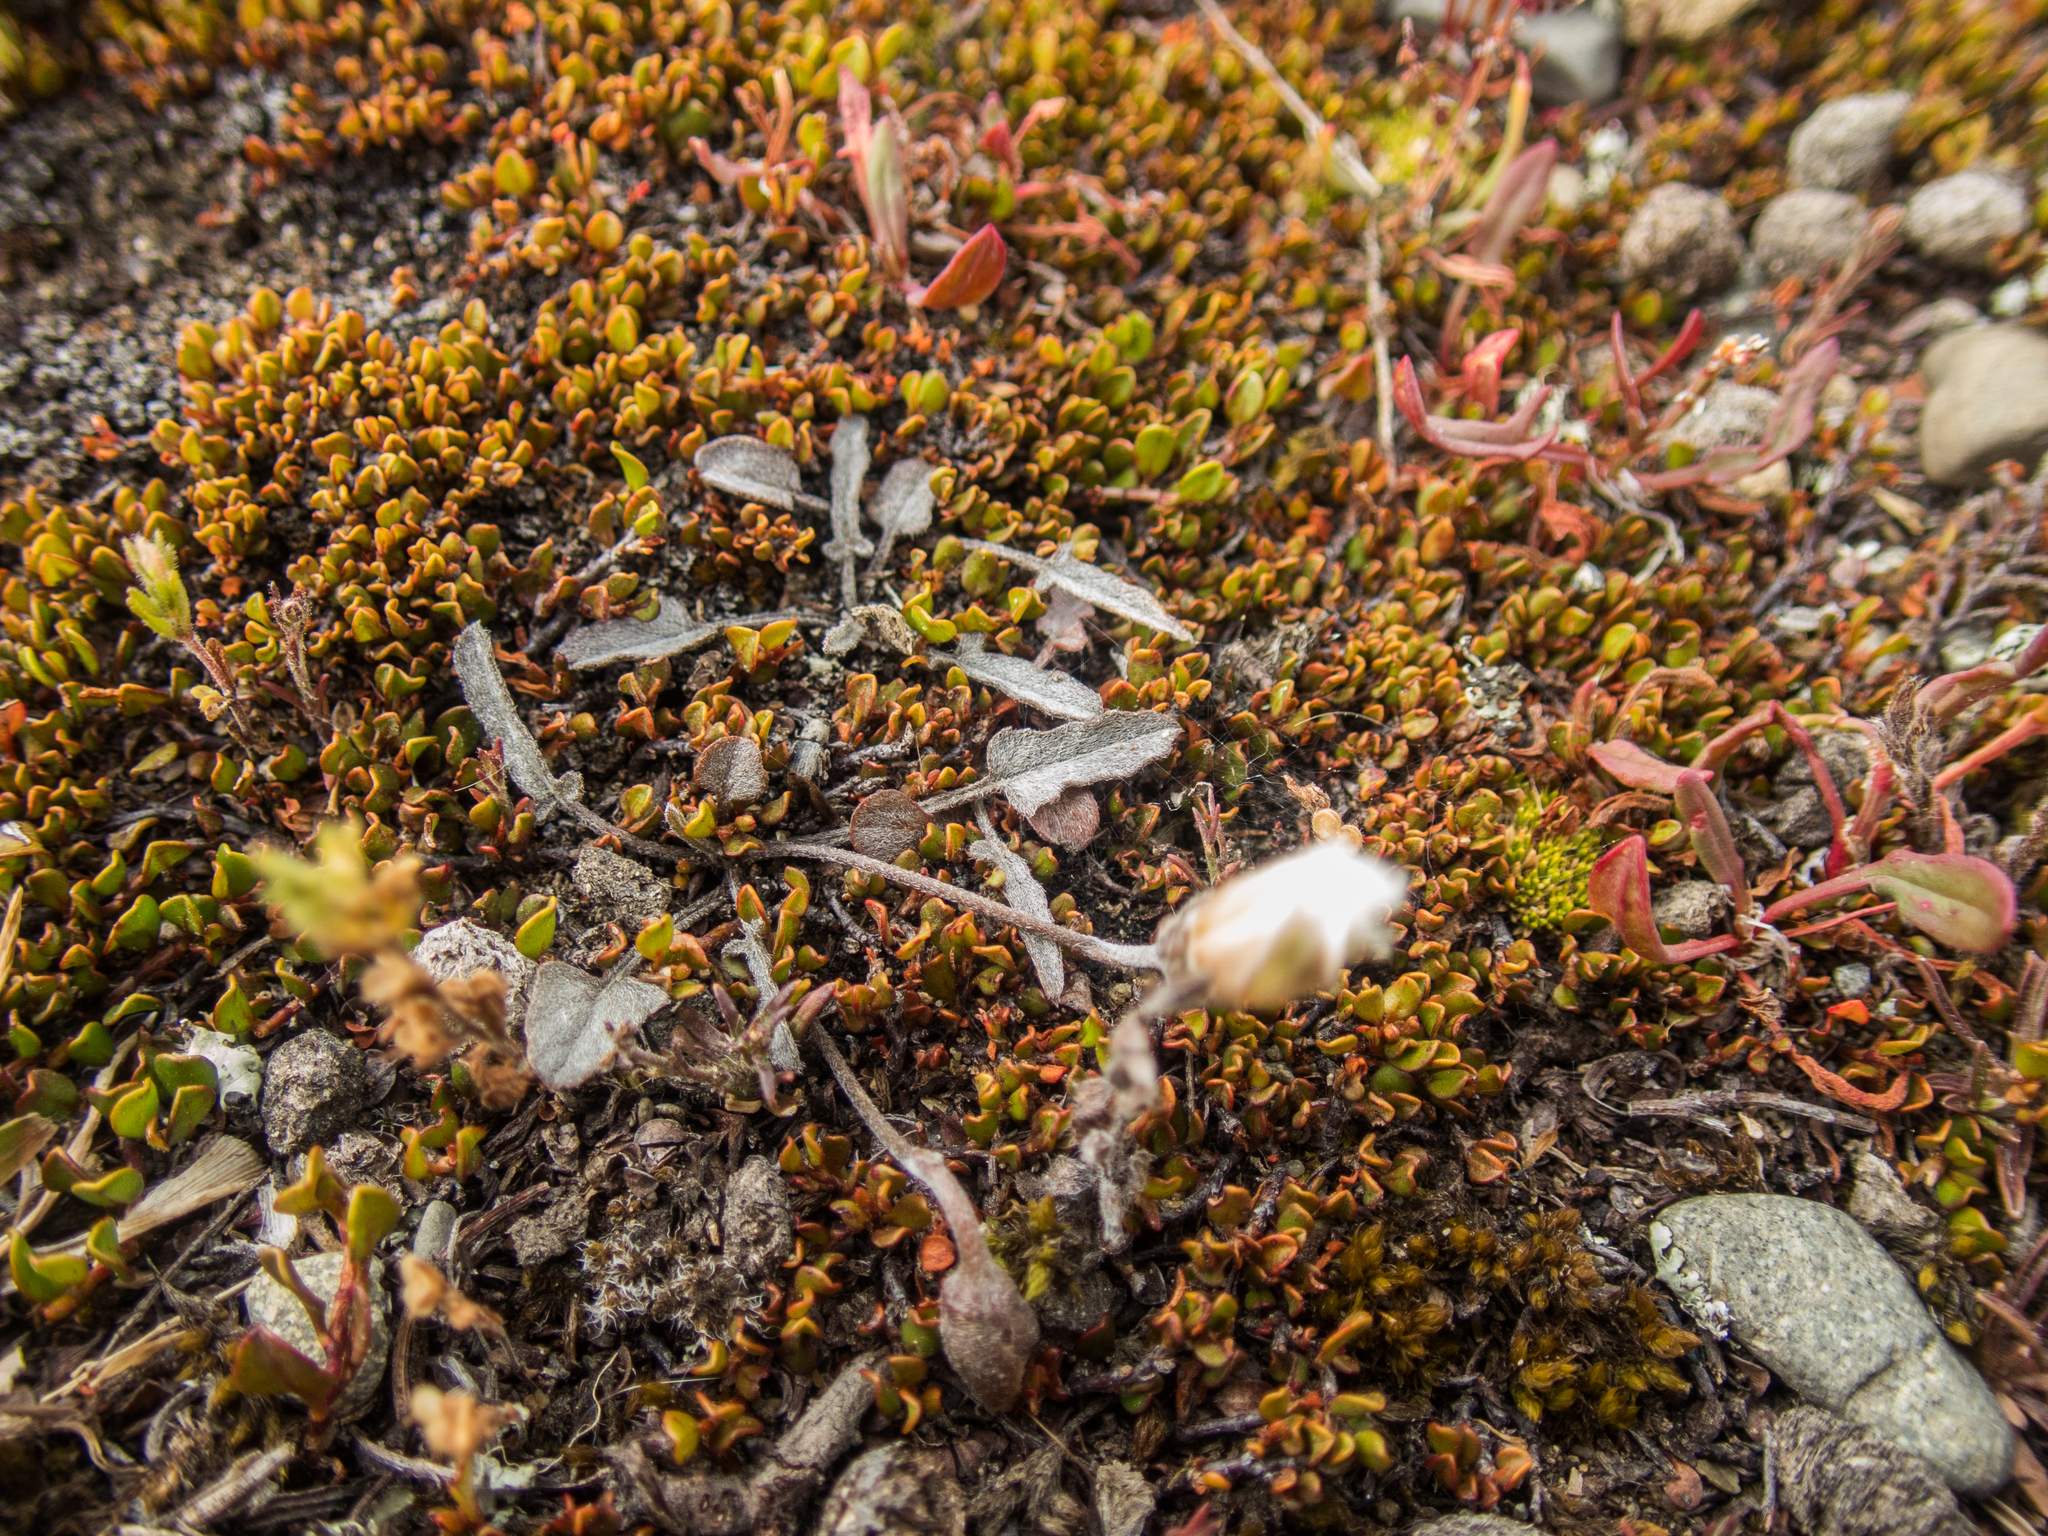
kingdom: Plantae
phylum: Tracheophyta
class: Magnoliopsida
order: Solanales
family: Convolvulaceae
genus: Convolvulus
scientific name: Convolvulus verecundus
